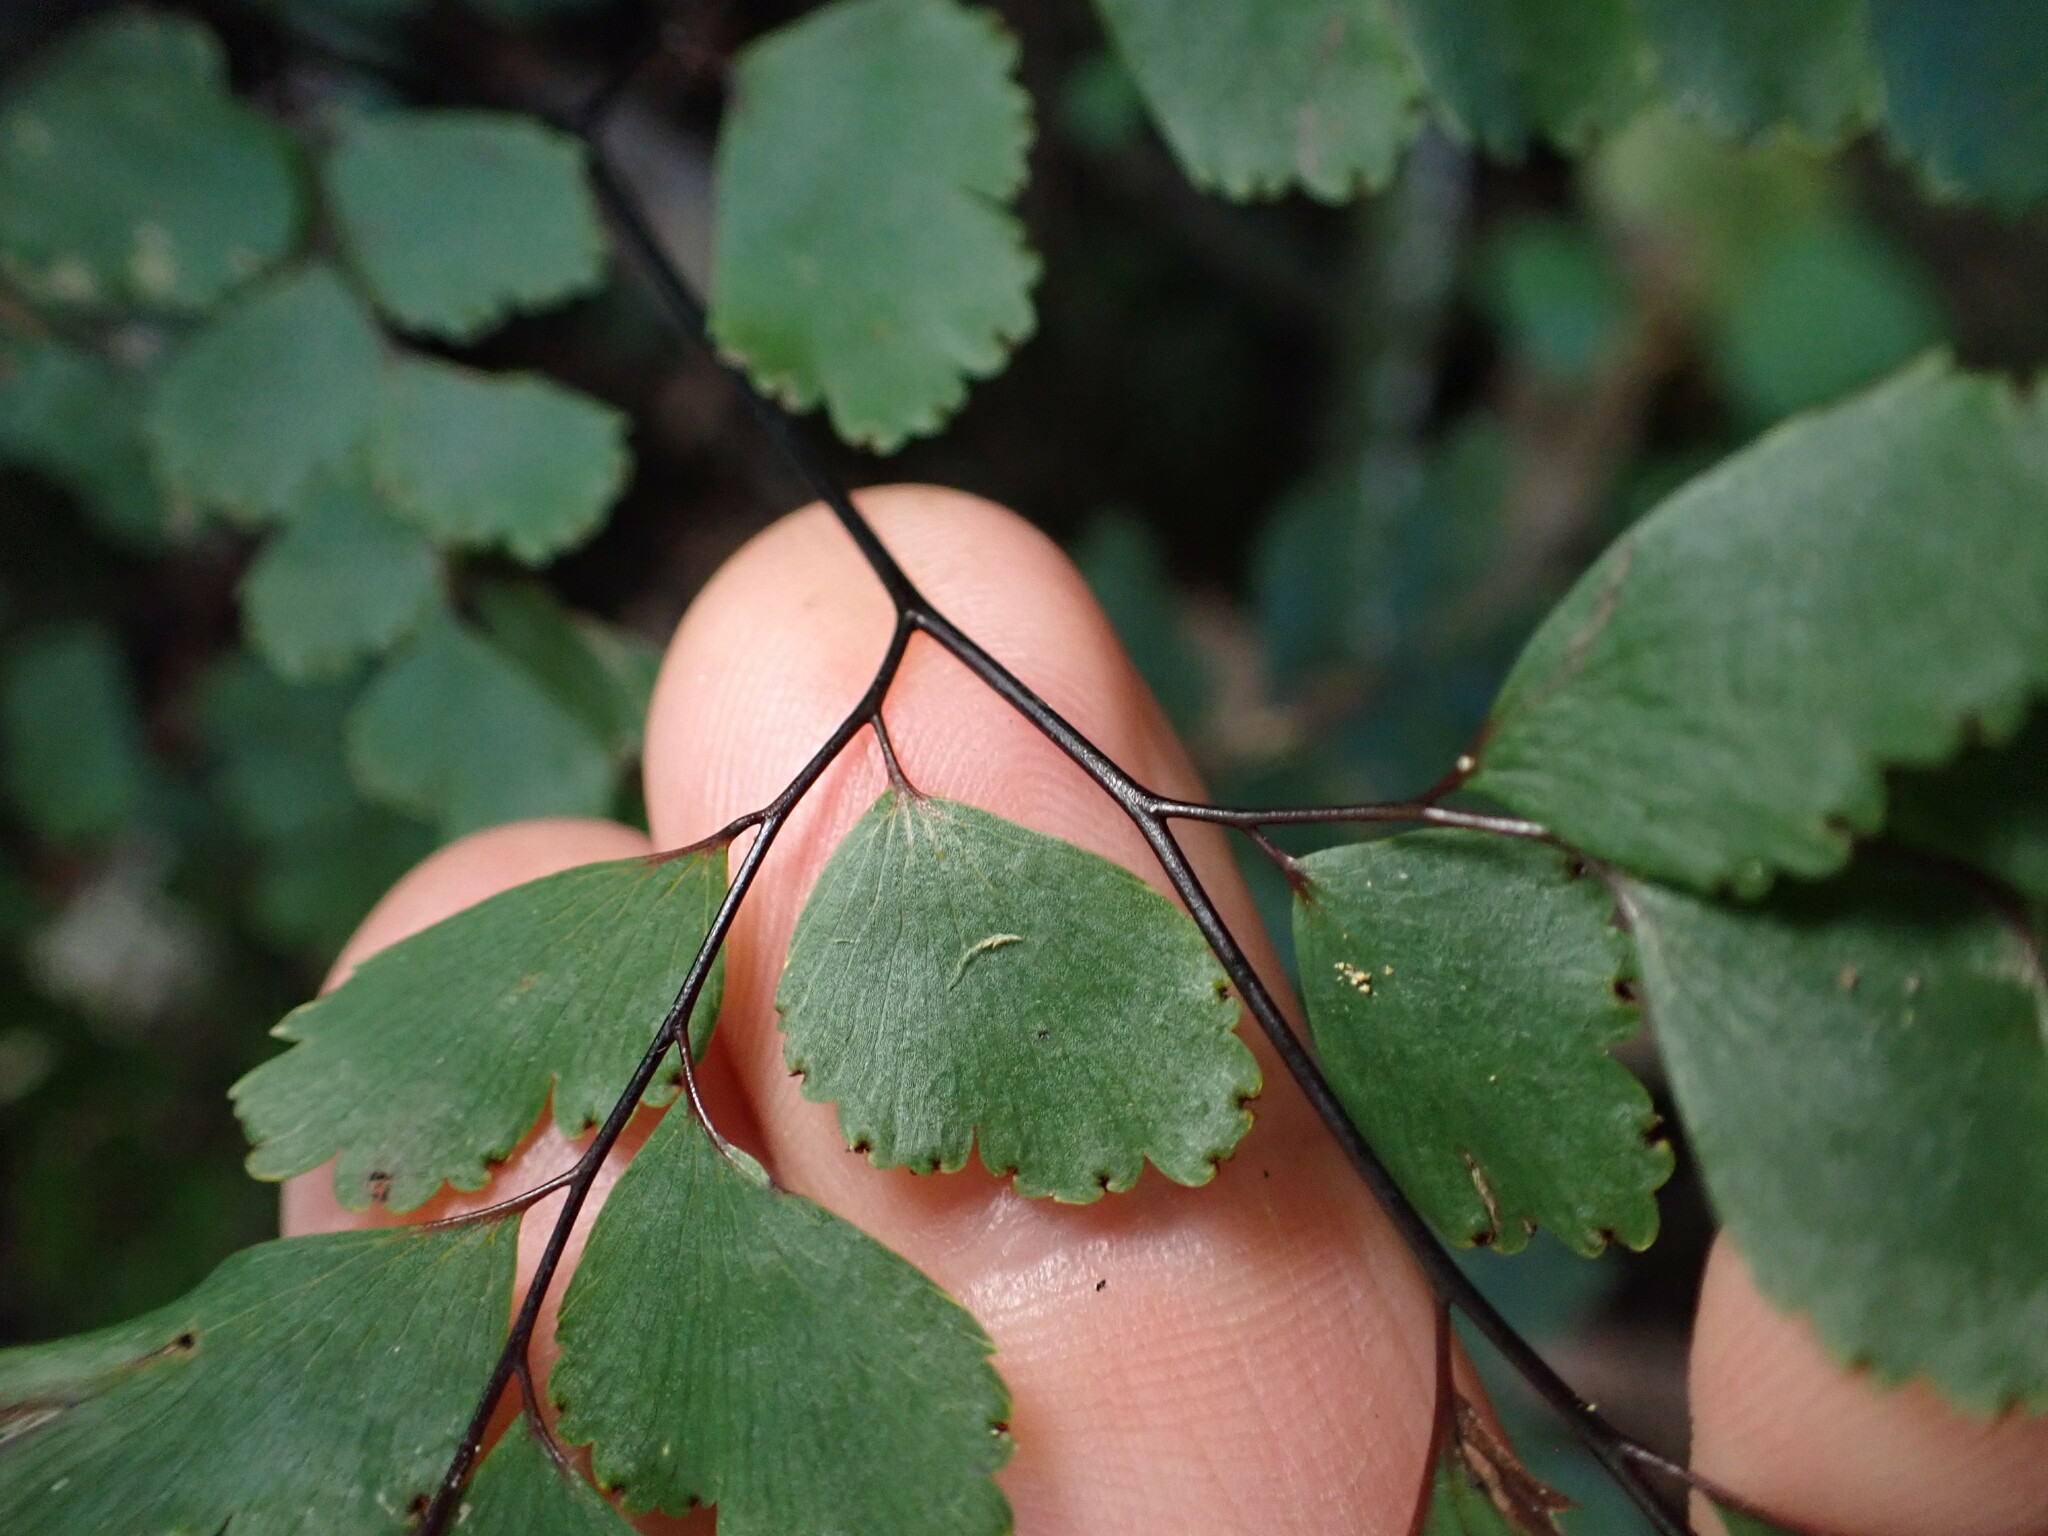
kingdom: Plantae
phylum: Tracheophyta
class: Polypodiopsida
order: Polypodiales
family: Pteridaceae
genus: Adiantum
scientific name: Adiantum cunninghamii
